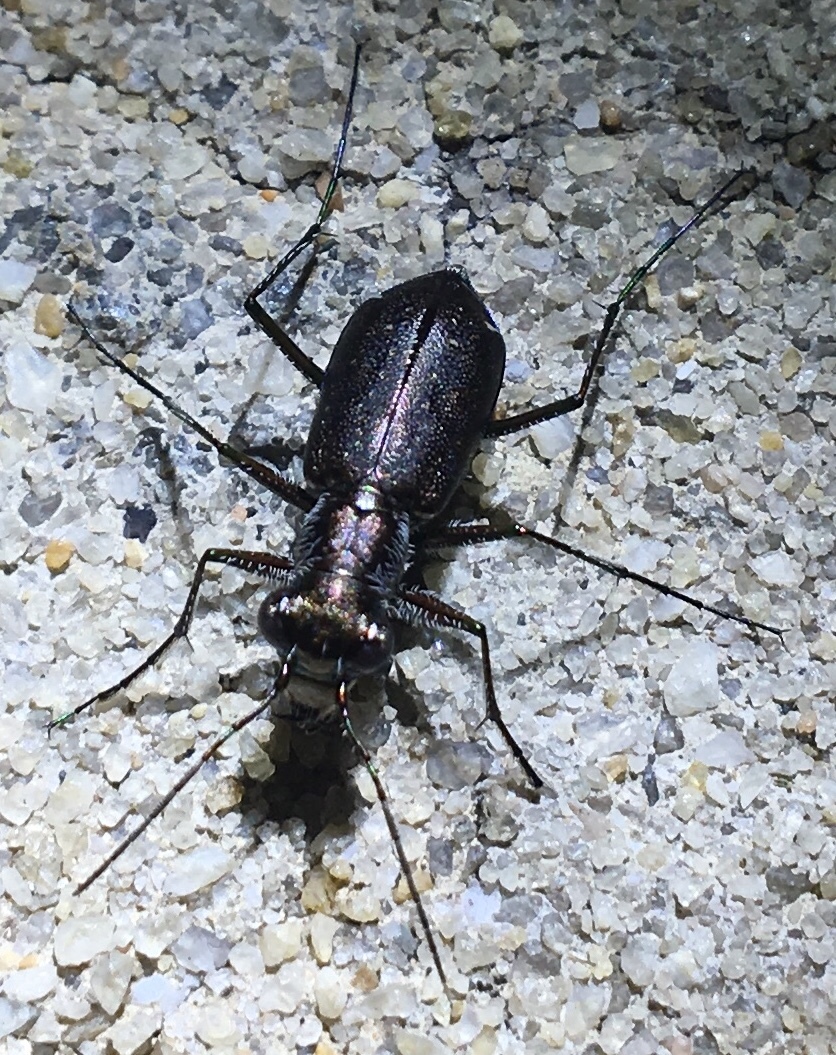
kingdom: Animalia
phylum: Arthropoda
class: Insecta
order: Coleoptera
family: Carabidae
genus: Cicindela
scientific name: Cicindela punctulata
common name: Punctured tiger beetle
